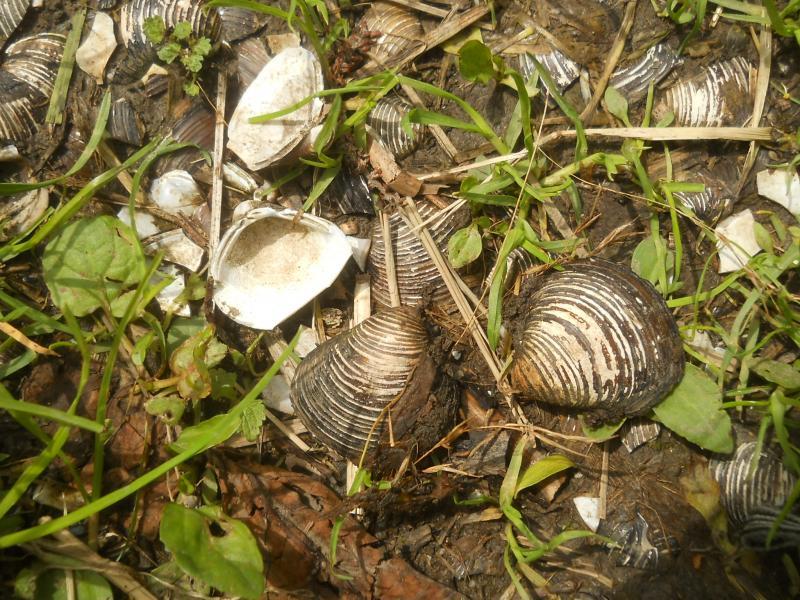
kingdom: Animalia
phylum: Mollusca
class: Bivalvia
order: Venerida
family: Cyrenidae
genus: Corbicula
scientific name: Corbicula fluminea
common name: Asian clam
